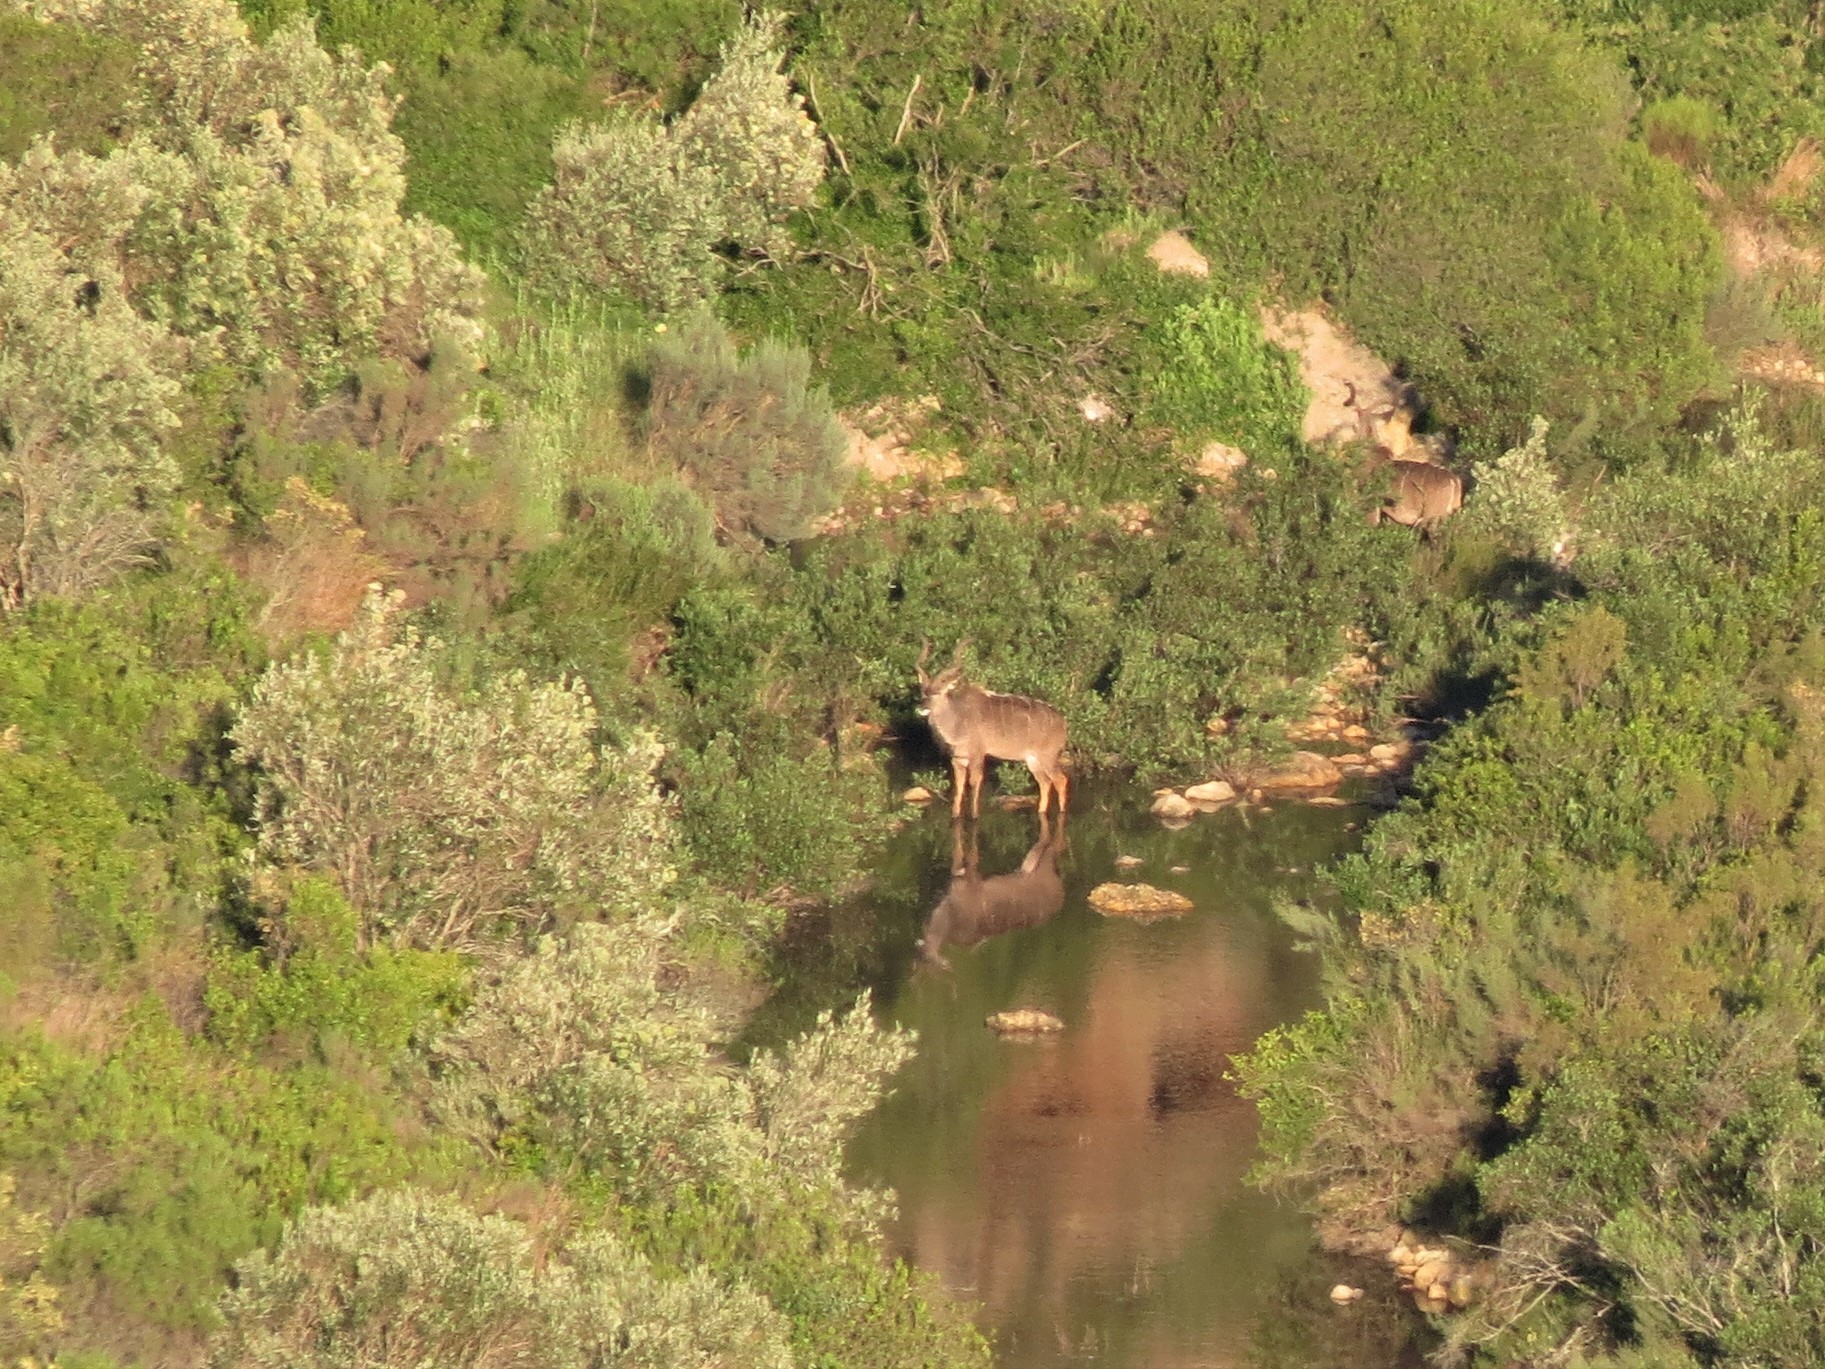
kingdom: Animalia
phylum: Chordata
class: Mammalia
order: Artiodactyla
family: Bovidae
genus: Tragelaphus
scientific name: Tragelaphus strepsiceros
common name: Greater kudu
